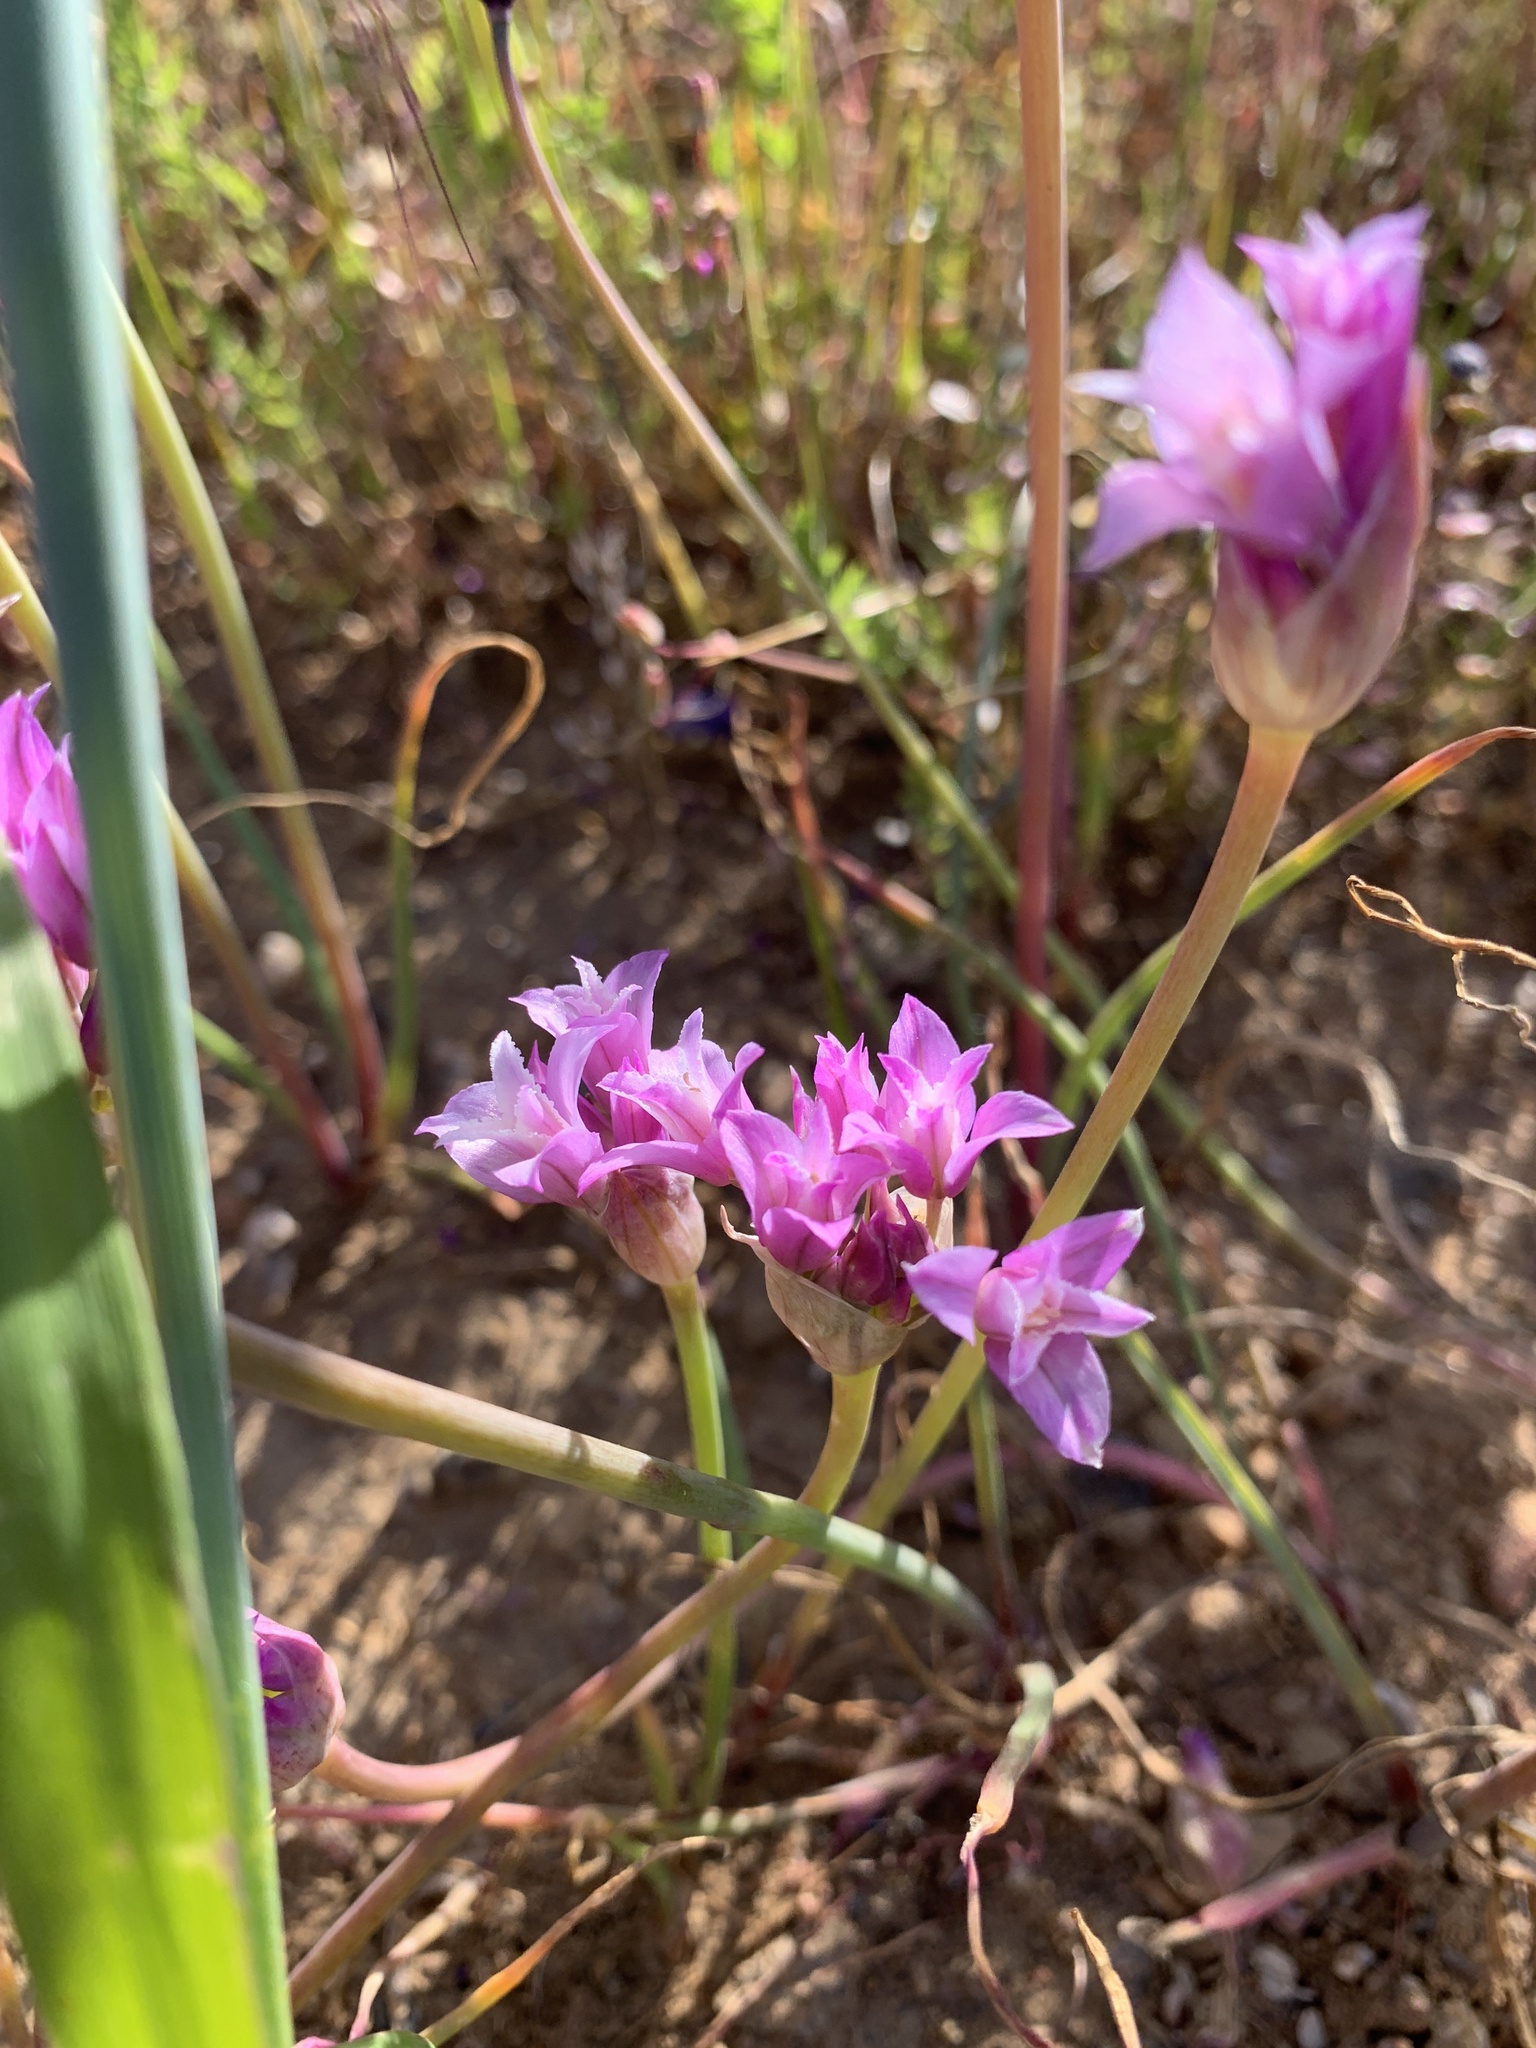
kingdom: Plantae
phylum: Tracheophyta
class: Liliopsida
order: Asparagales
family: Amaryllidaceae
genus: Allium
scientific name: Allium crispum
